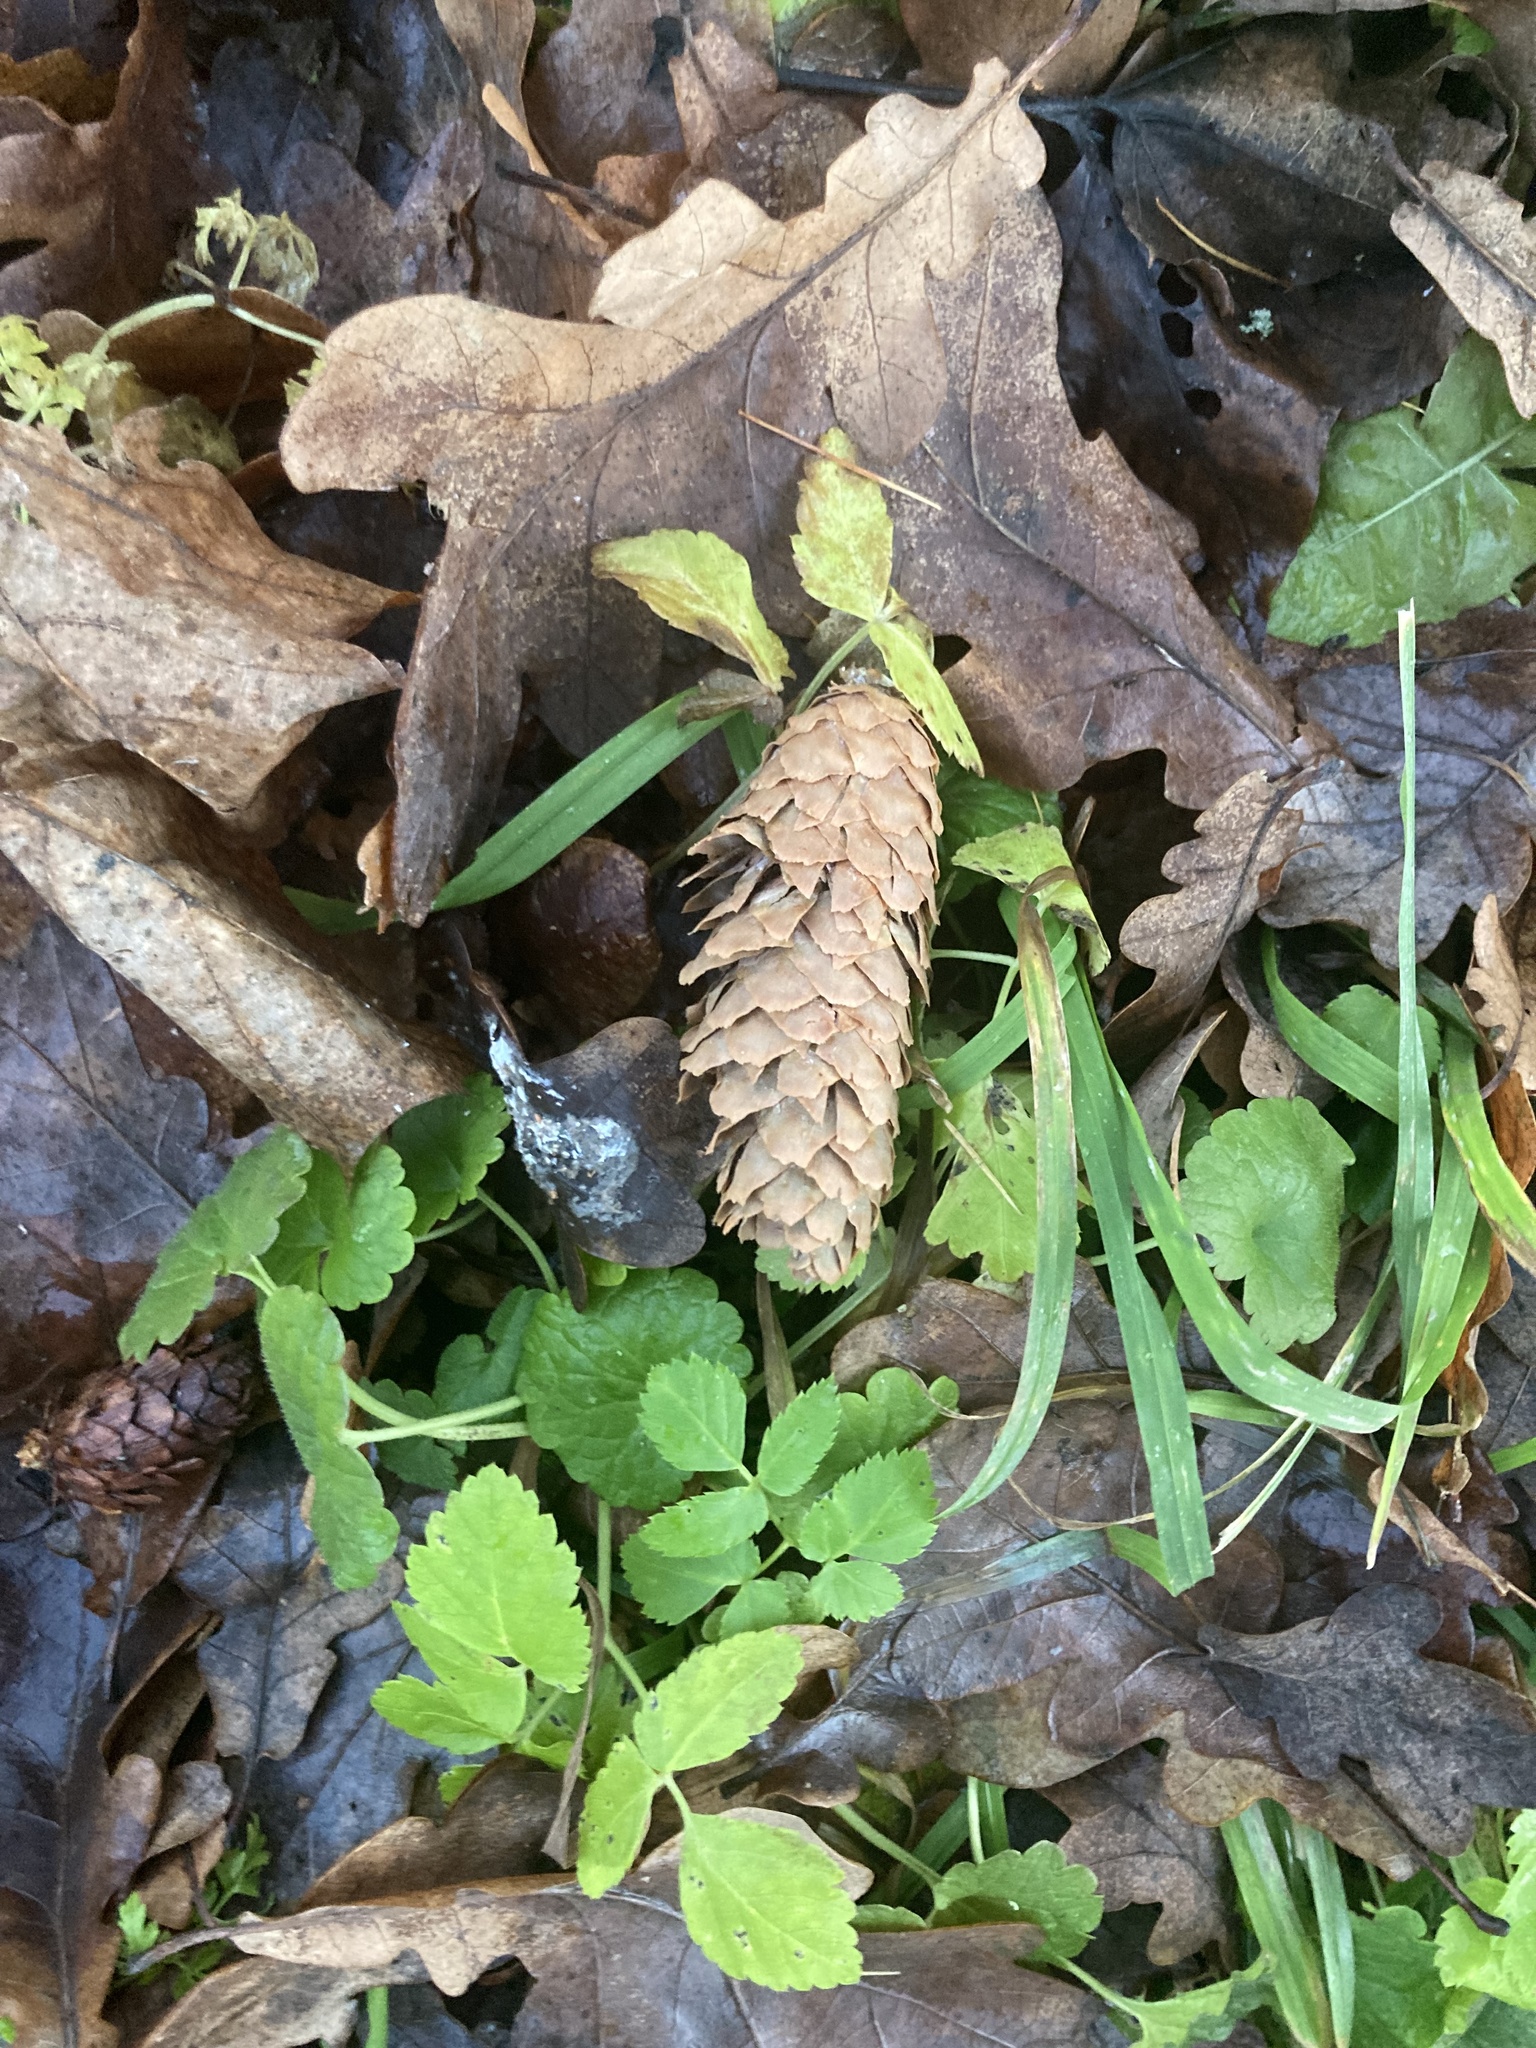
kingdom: Plantae
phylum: Tracheophyta
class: Pinopsida
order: Pinales
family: Pinaceae
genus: Picea
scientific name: Picea abies
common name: Norway spruce
